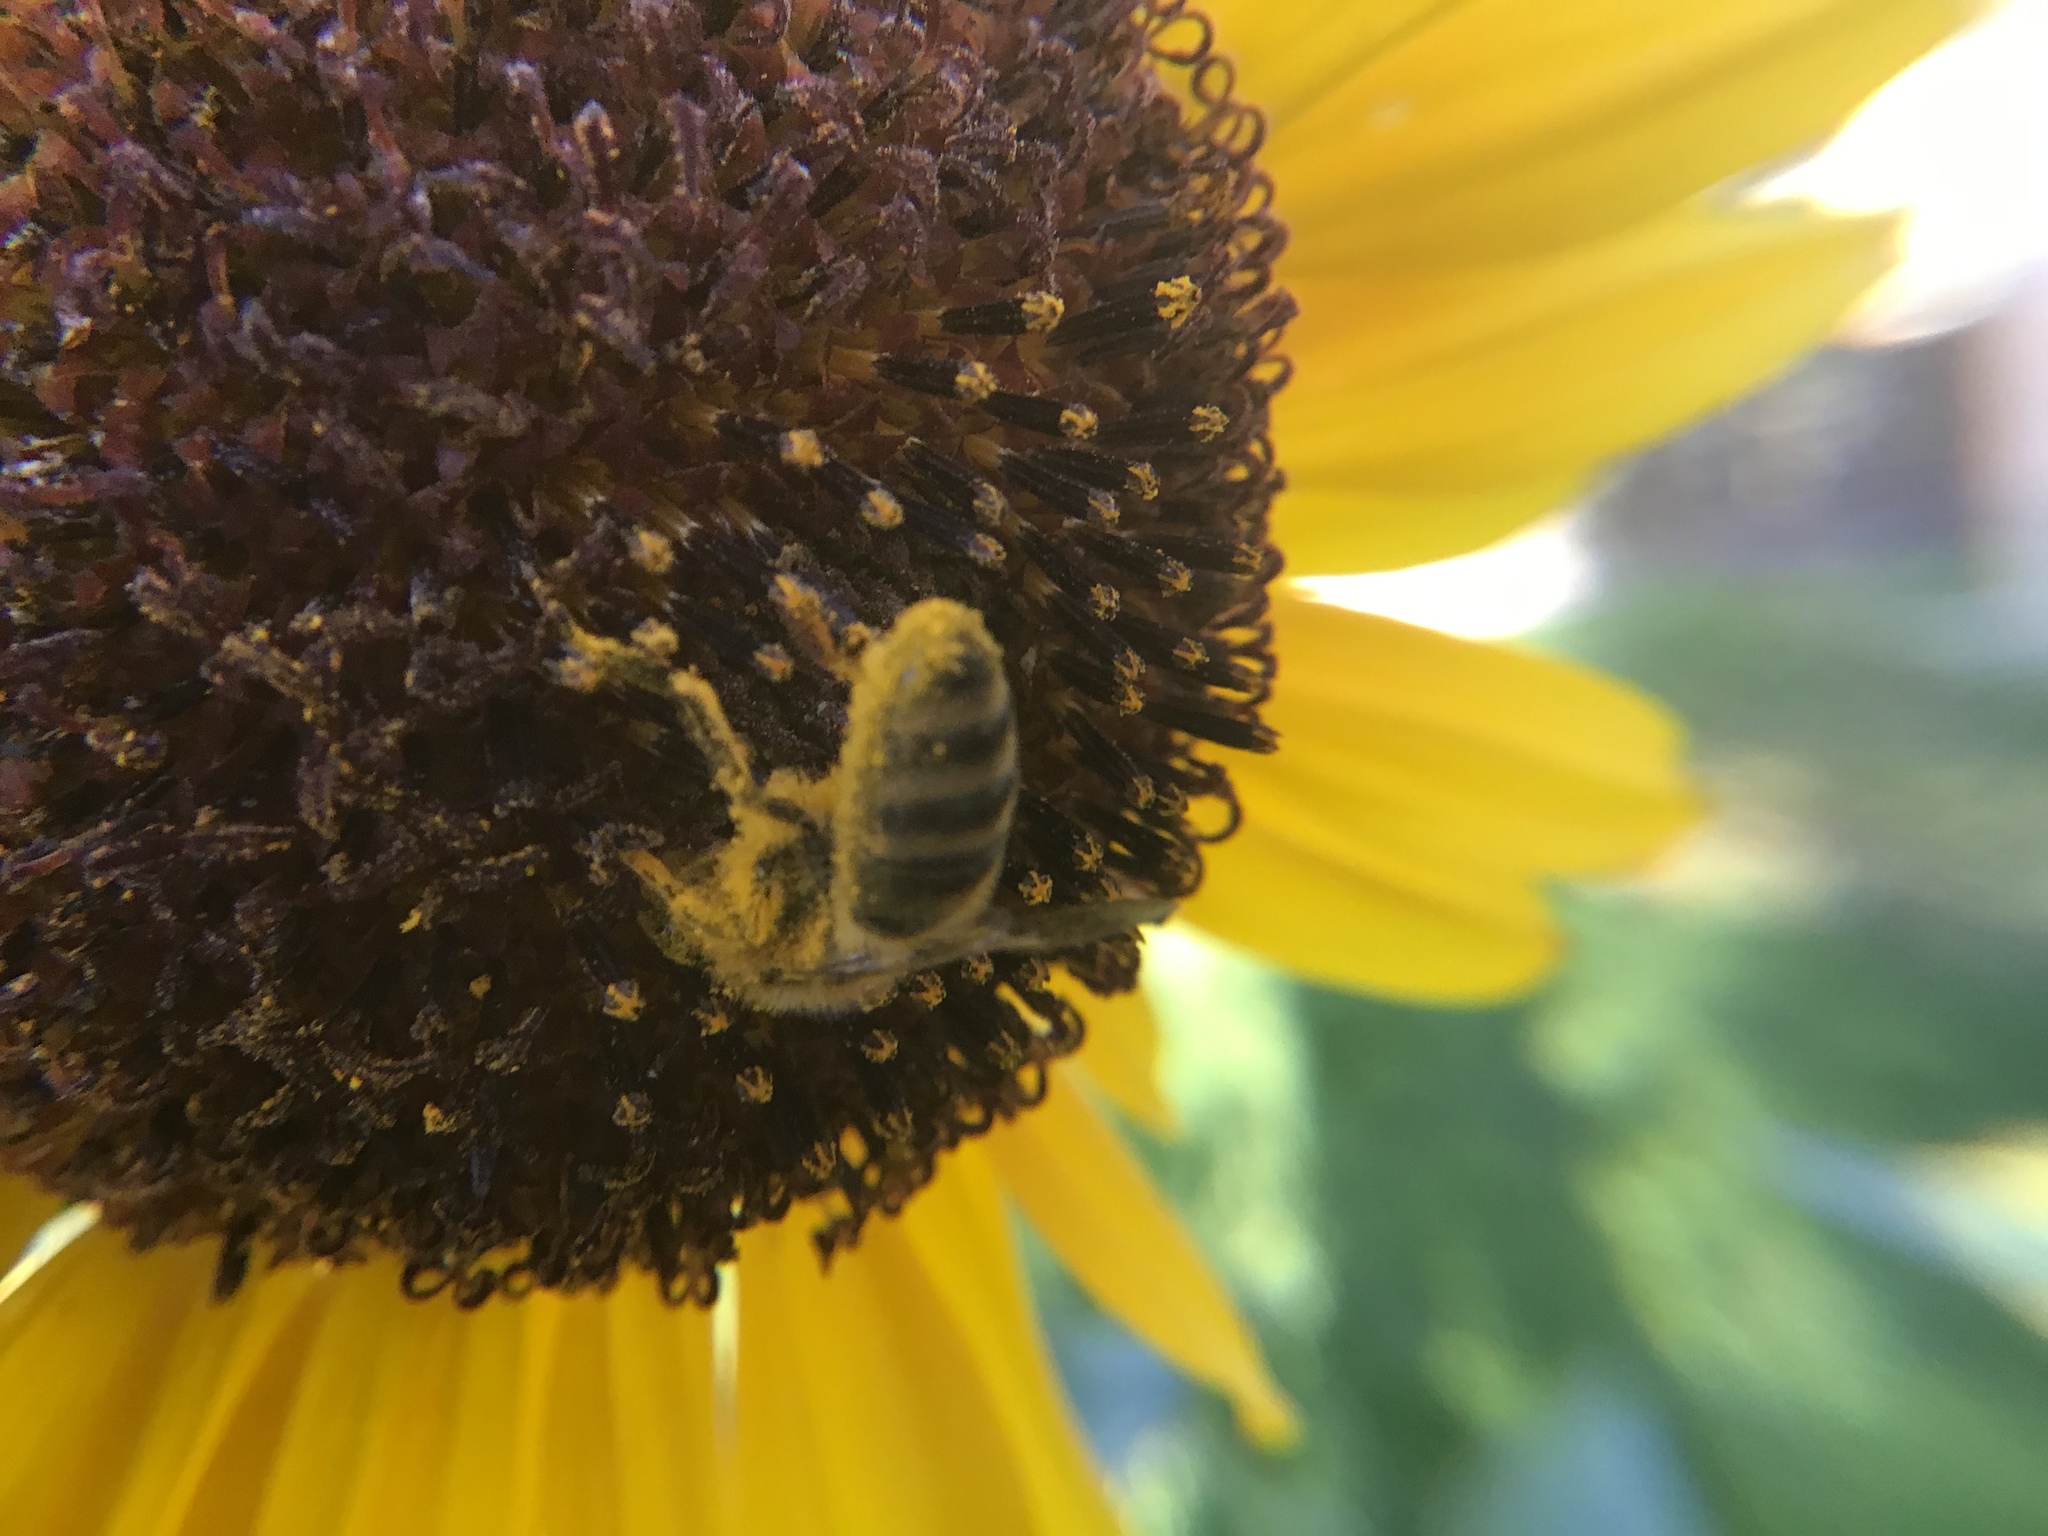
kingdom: Animalia
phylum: Arthropoda
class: Insecta
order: Hymenoptera
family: Apidae
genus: Apis
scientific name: Apis mellifera
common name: Honey bee
